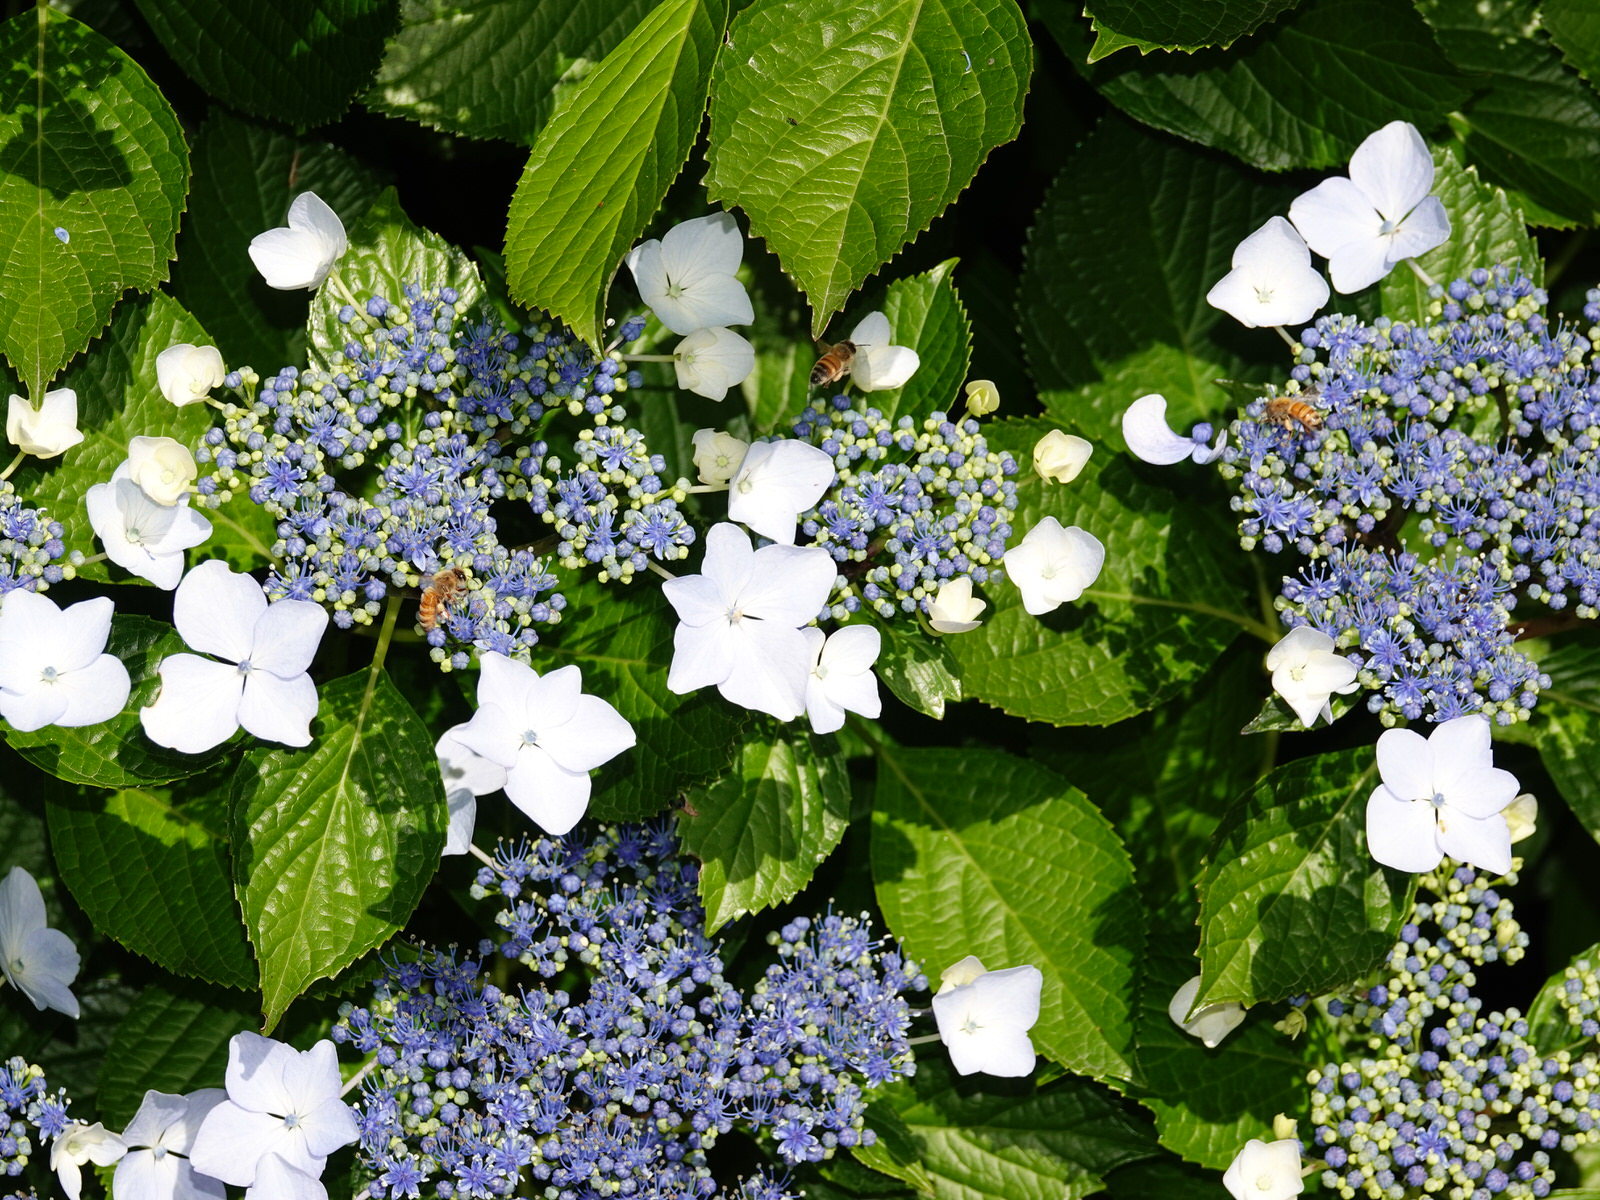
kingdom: Animalia
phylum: Arthropoda
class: Insecta
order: Hymenoptera
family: Apidae
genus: Apis
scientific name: Apis mellifera
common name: Honey bee
